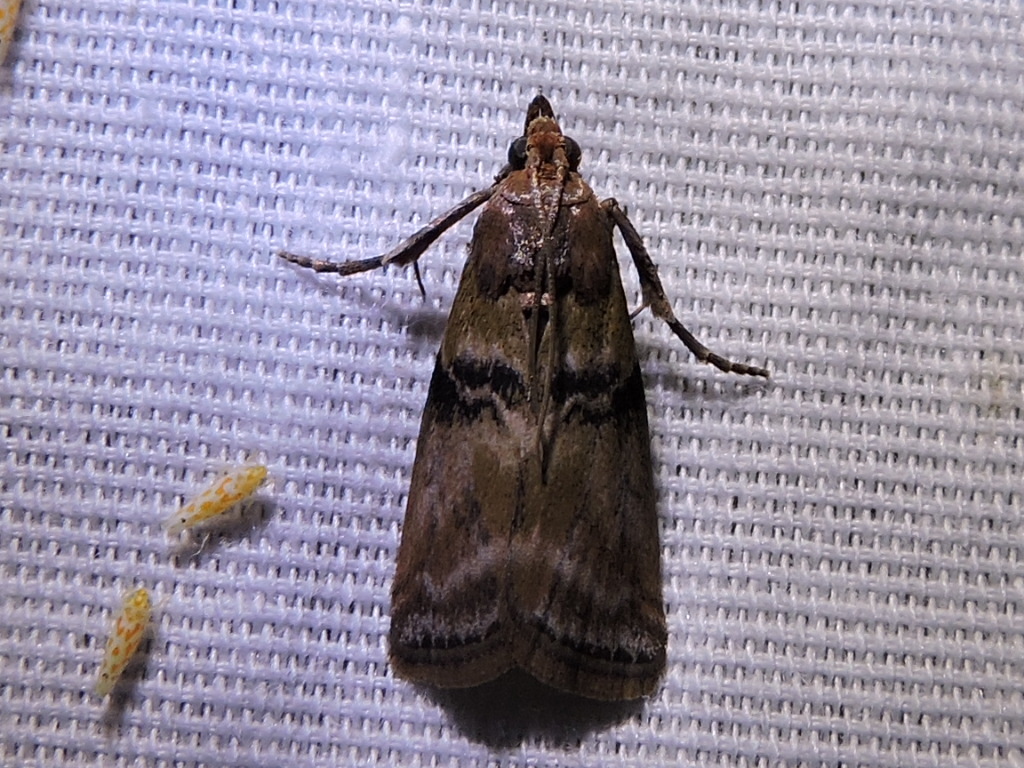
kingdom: Animalia
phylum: Arthropoda
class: Insecta
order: Lepidoptera
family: Pyralidae
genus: Meroptera
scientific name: Meroptera cviatella
